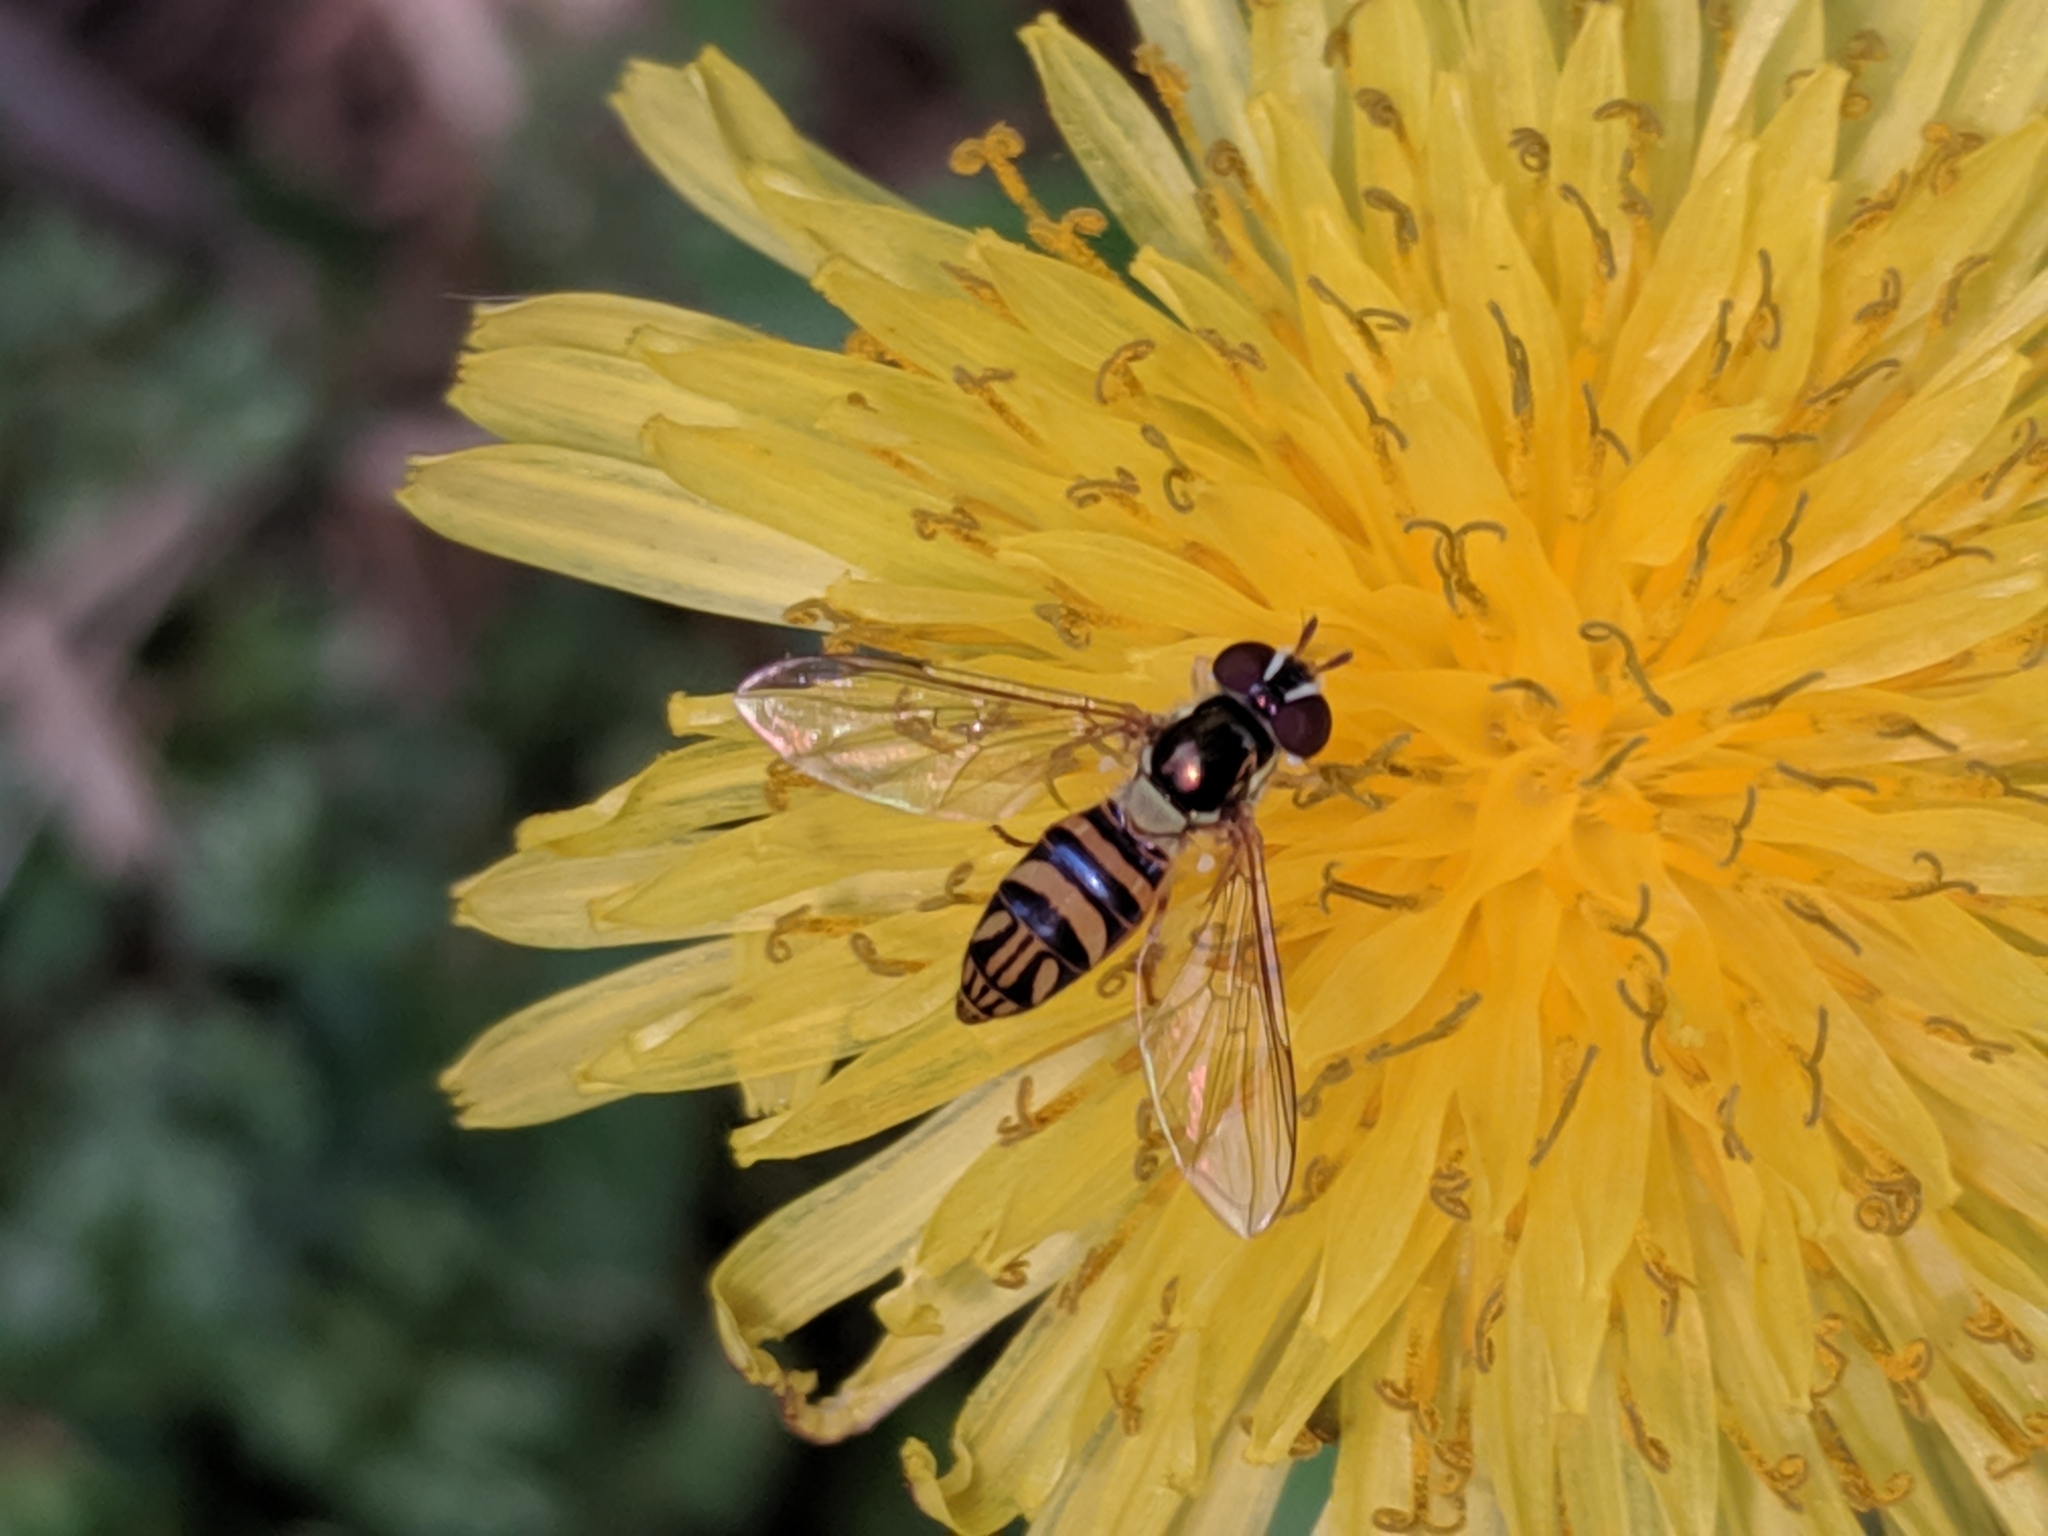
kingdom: Animalia
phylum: Arthropoda
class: Insecta
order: Diptera
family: Syrphidae
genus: Allograpta
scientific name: Allograpta obliqua
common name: Common oblique syrphid
